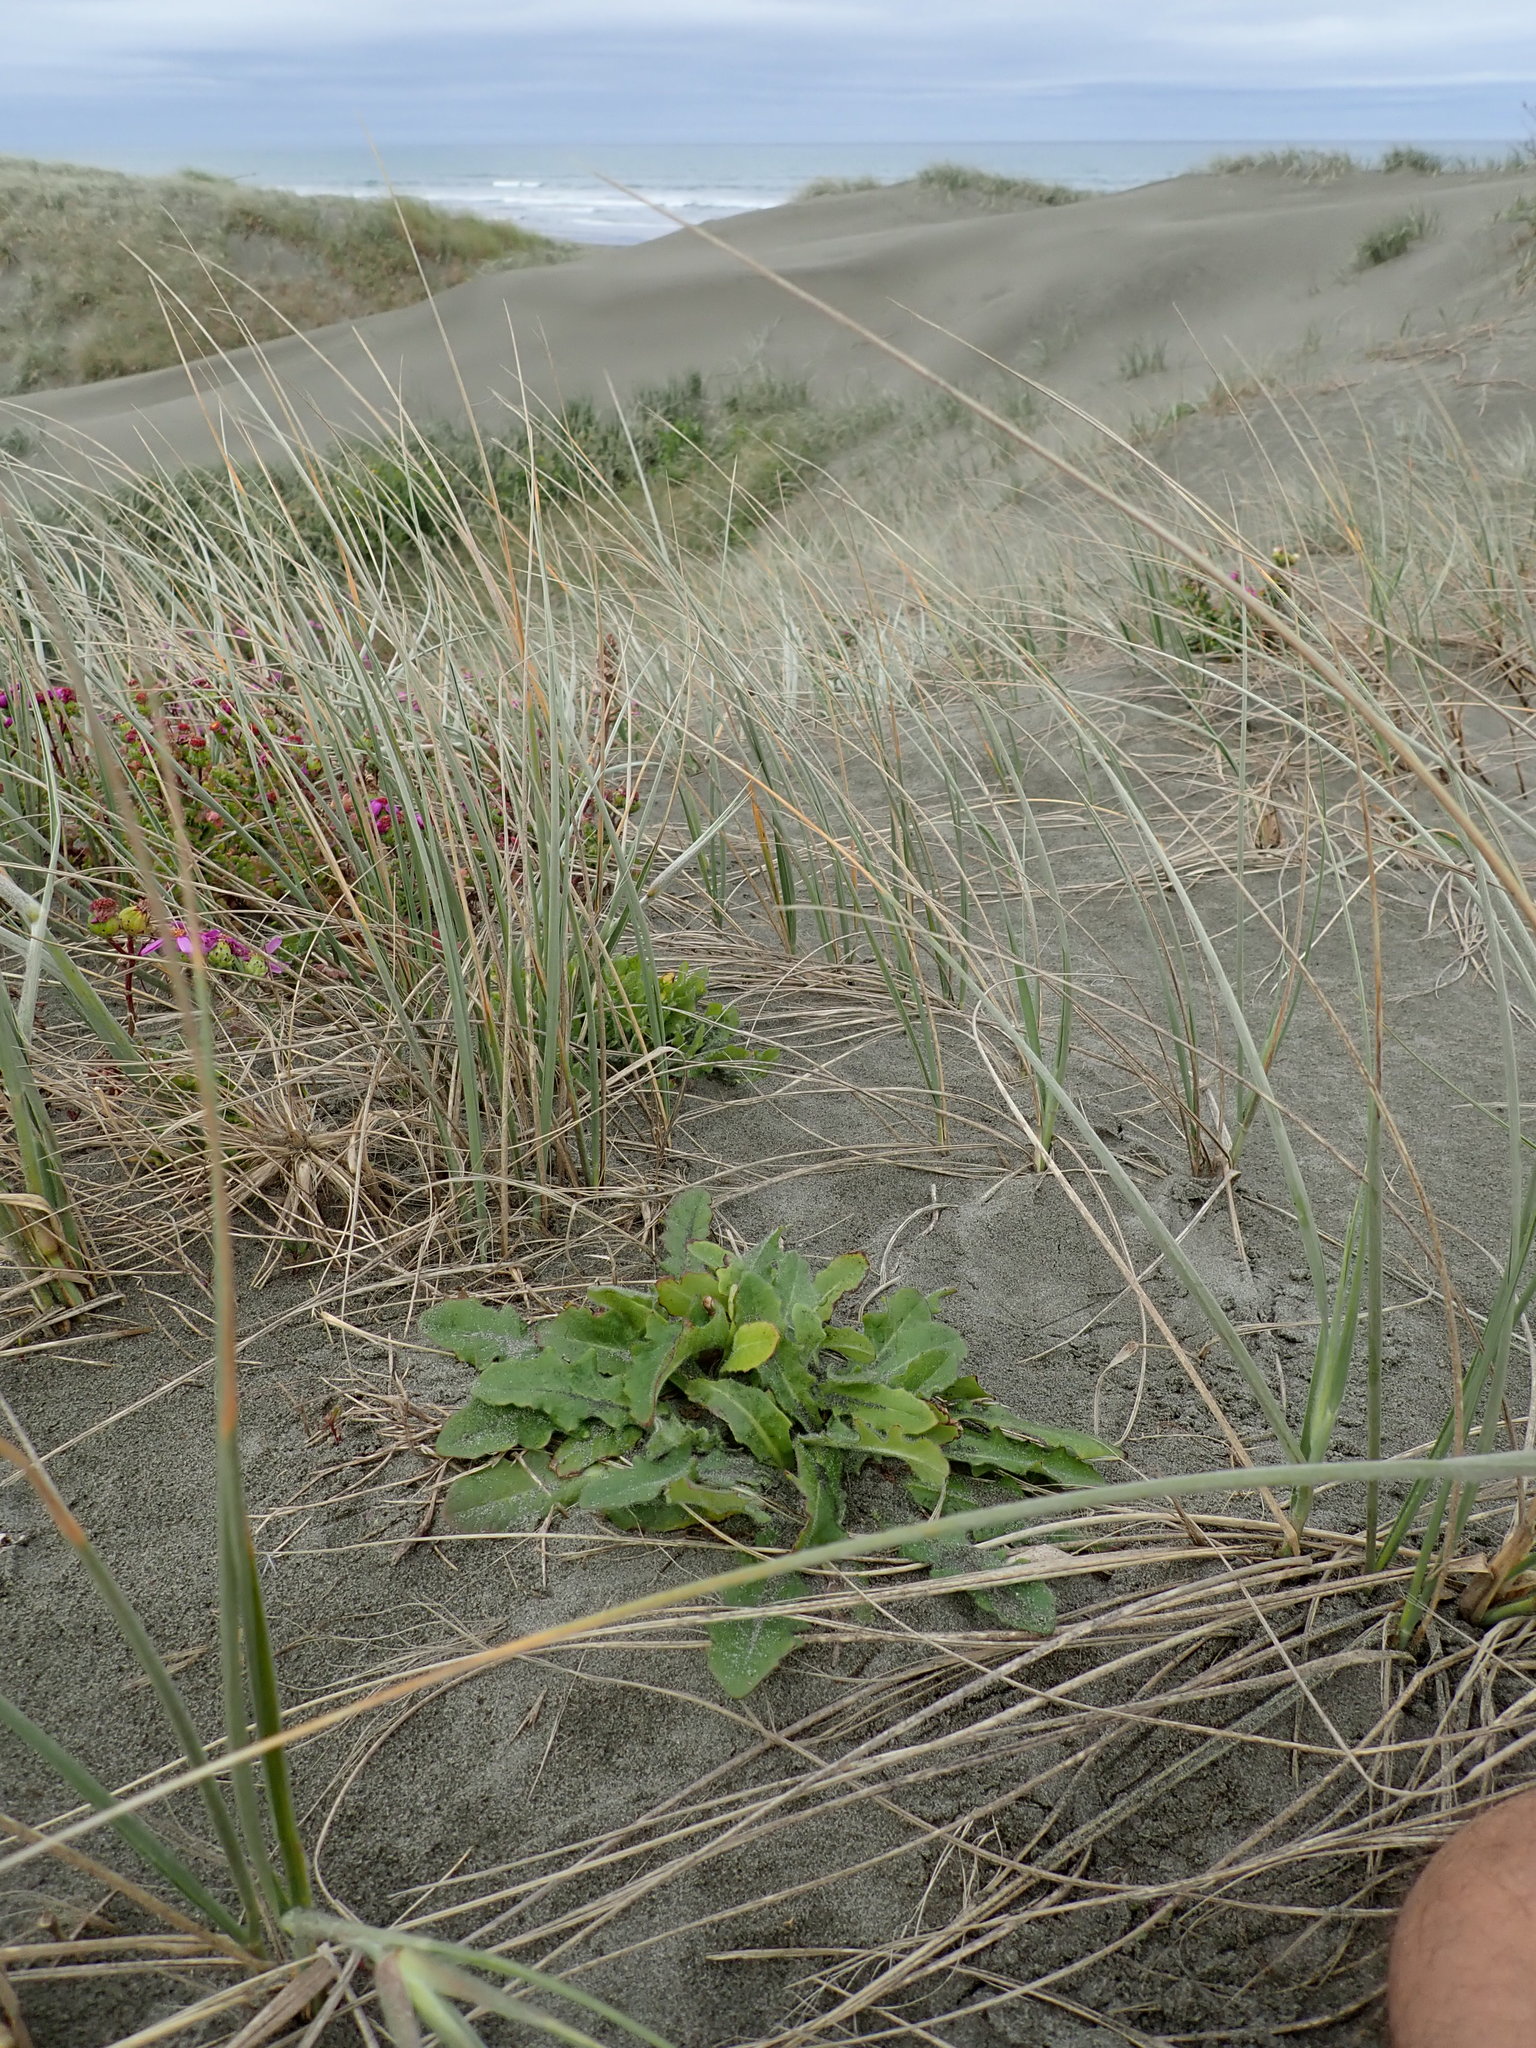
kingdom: Plantae
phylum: Tracheophyta
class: Magnoliopsida
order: Asterales
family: Asteraceae
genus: Hypochaeris
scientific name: Hypochaeris radicata
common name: Flatweed
